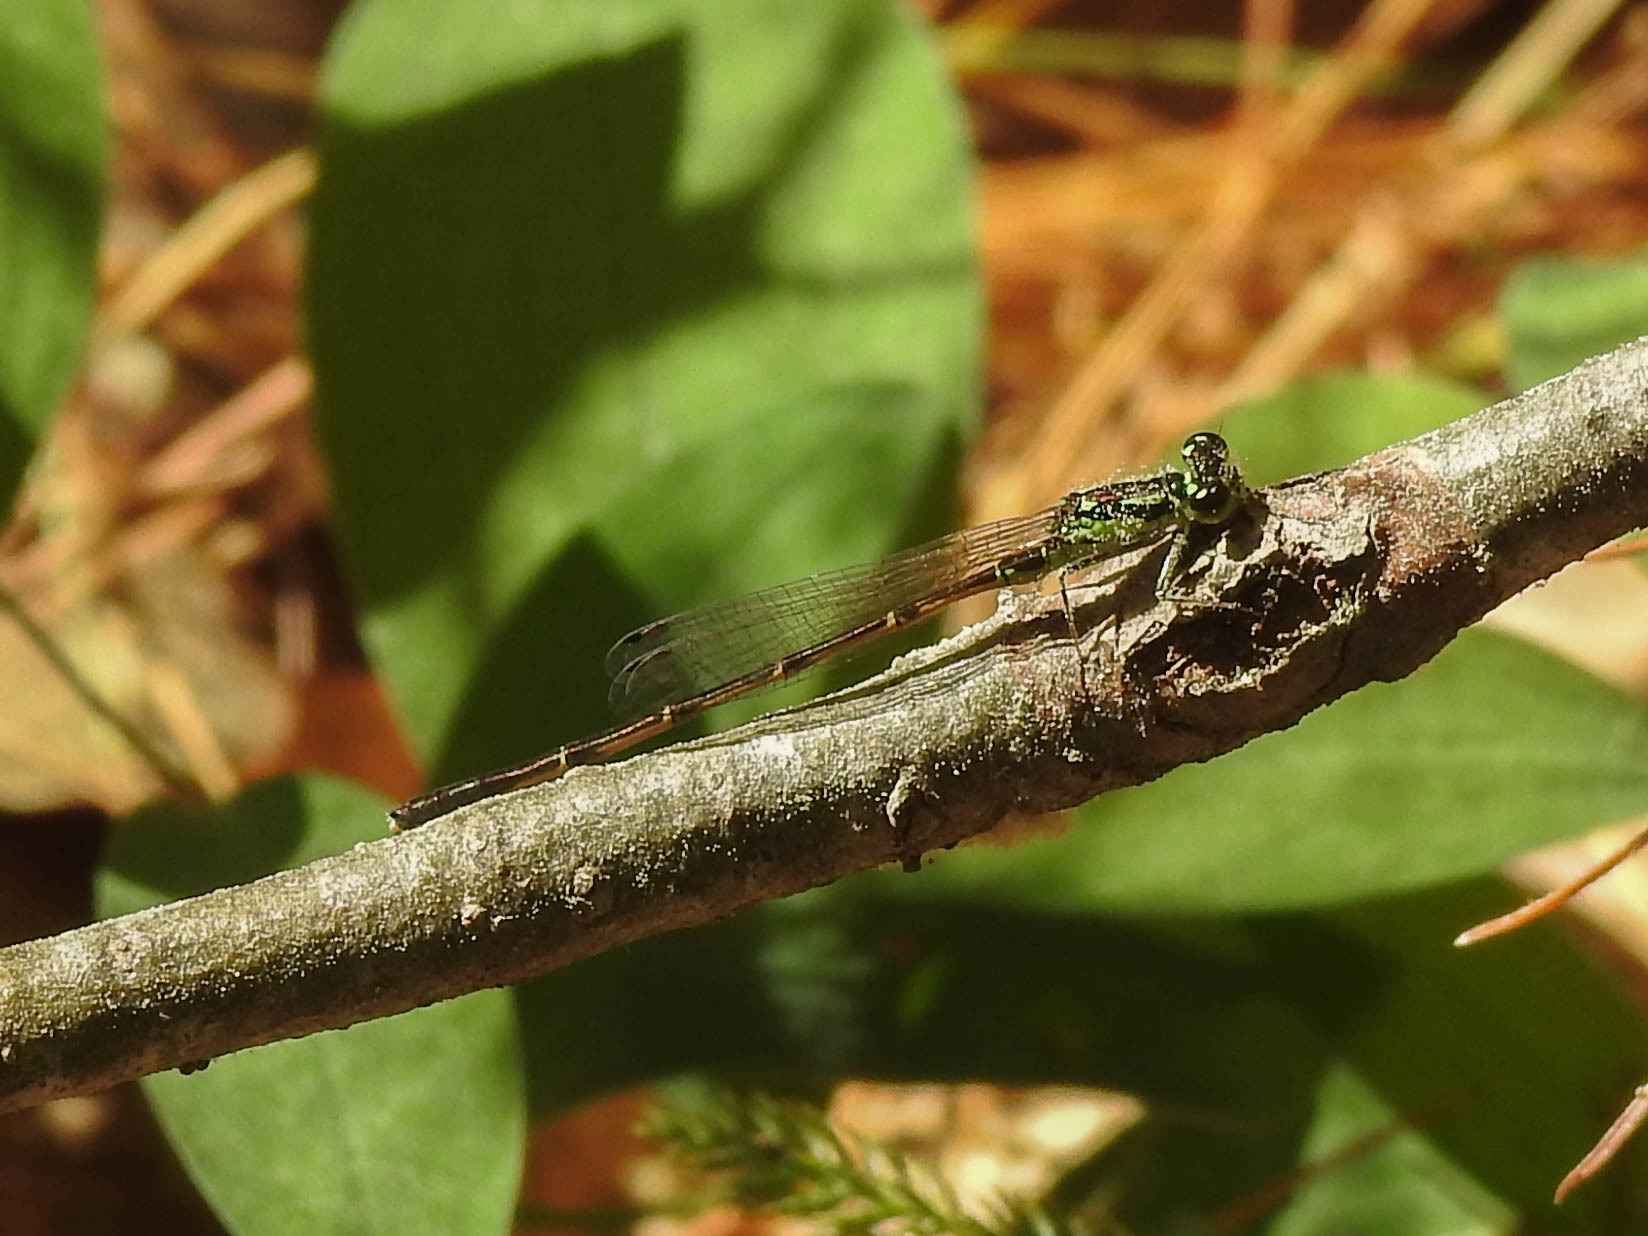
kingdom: Animalia
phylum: Arthropoda
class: Insecta
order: Odonata
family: Coenagrionidae
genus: Ischnura
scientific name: Ischnura posita
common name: Fragile forktail
